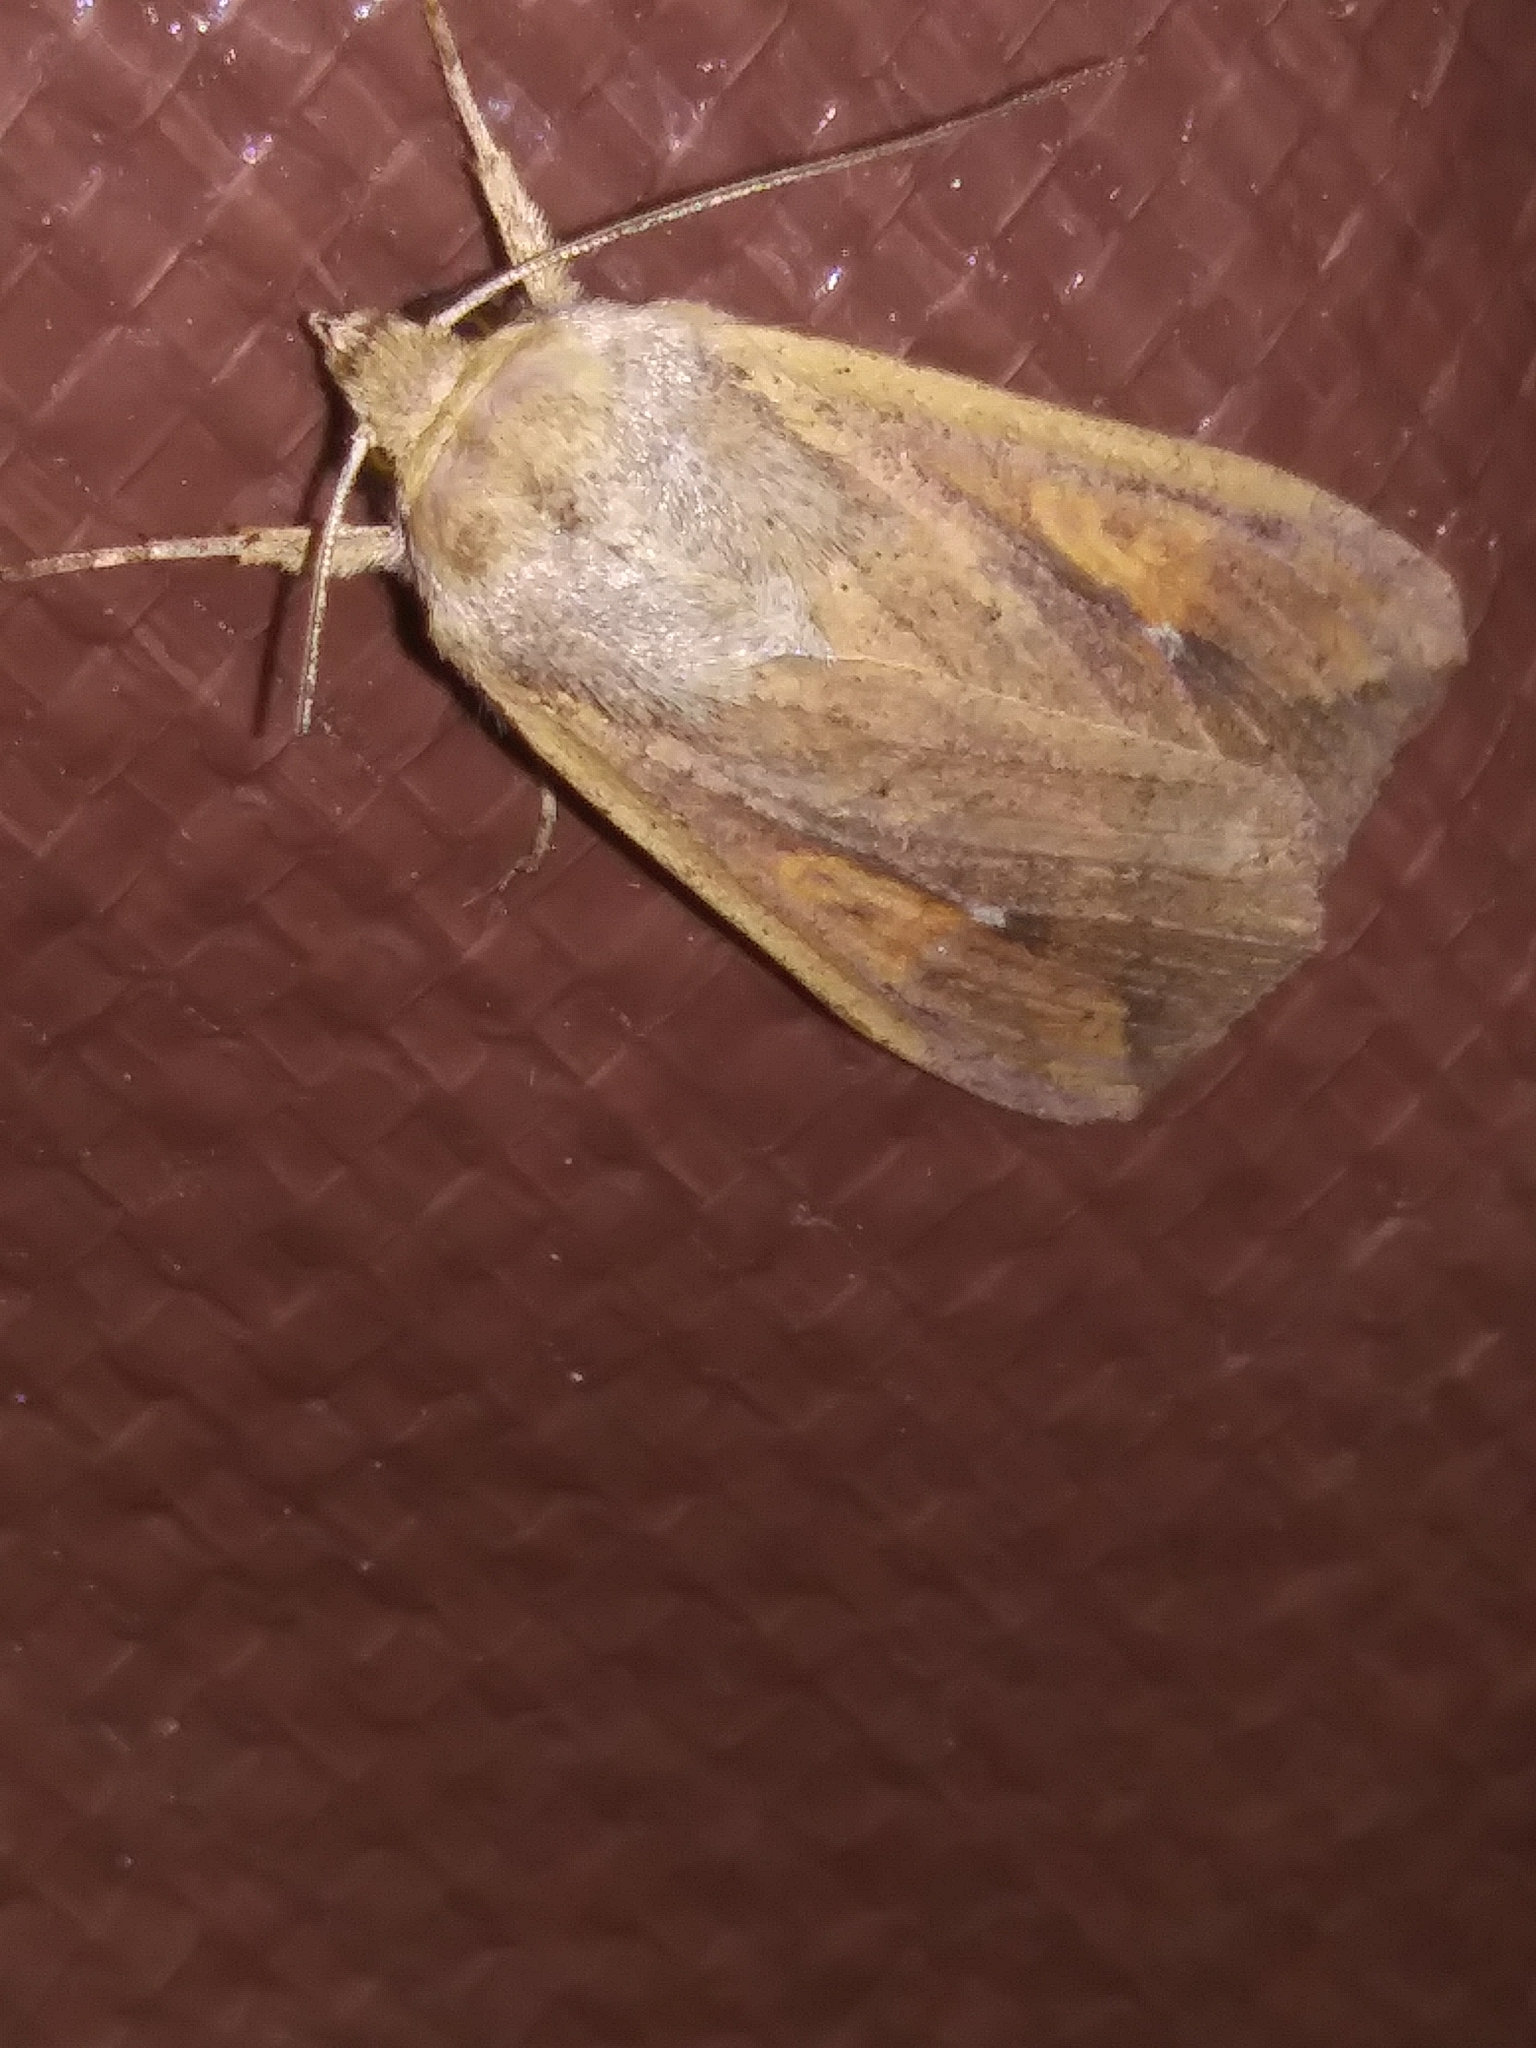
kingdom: Animalia
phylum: Arthropoda
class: Insecta
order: Lepidoptera
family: Noctuidae
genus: Mythimna
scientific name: Mythimna unipuncta
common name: White-speck
